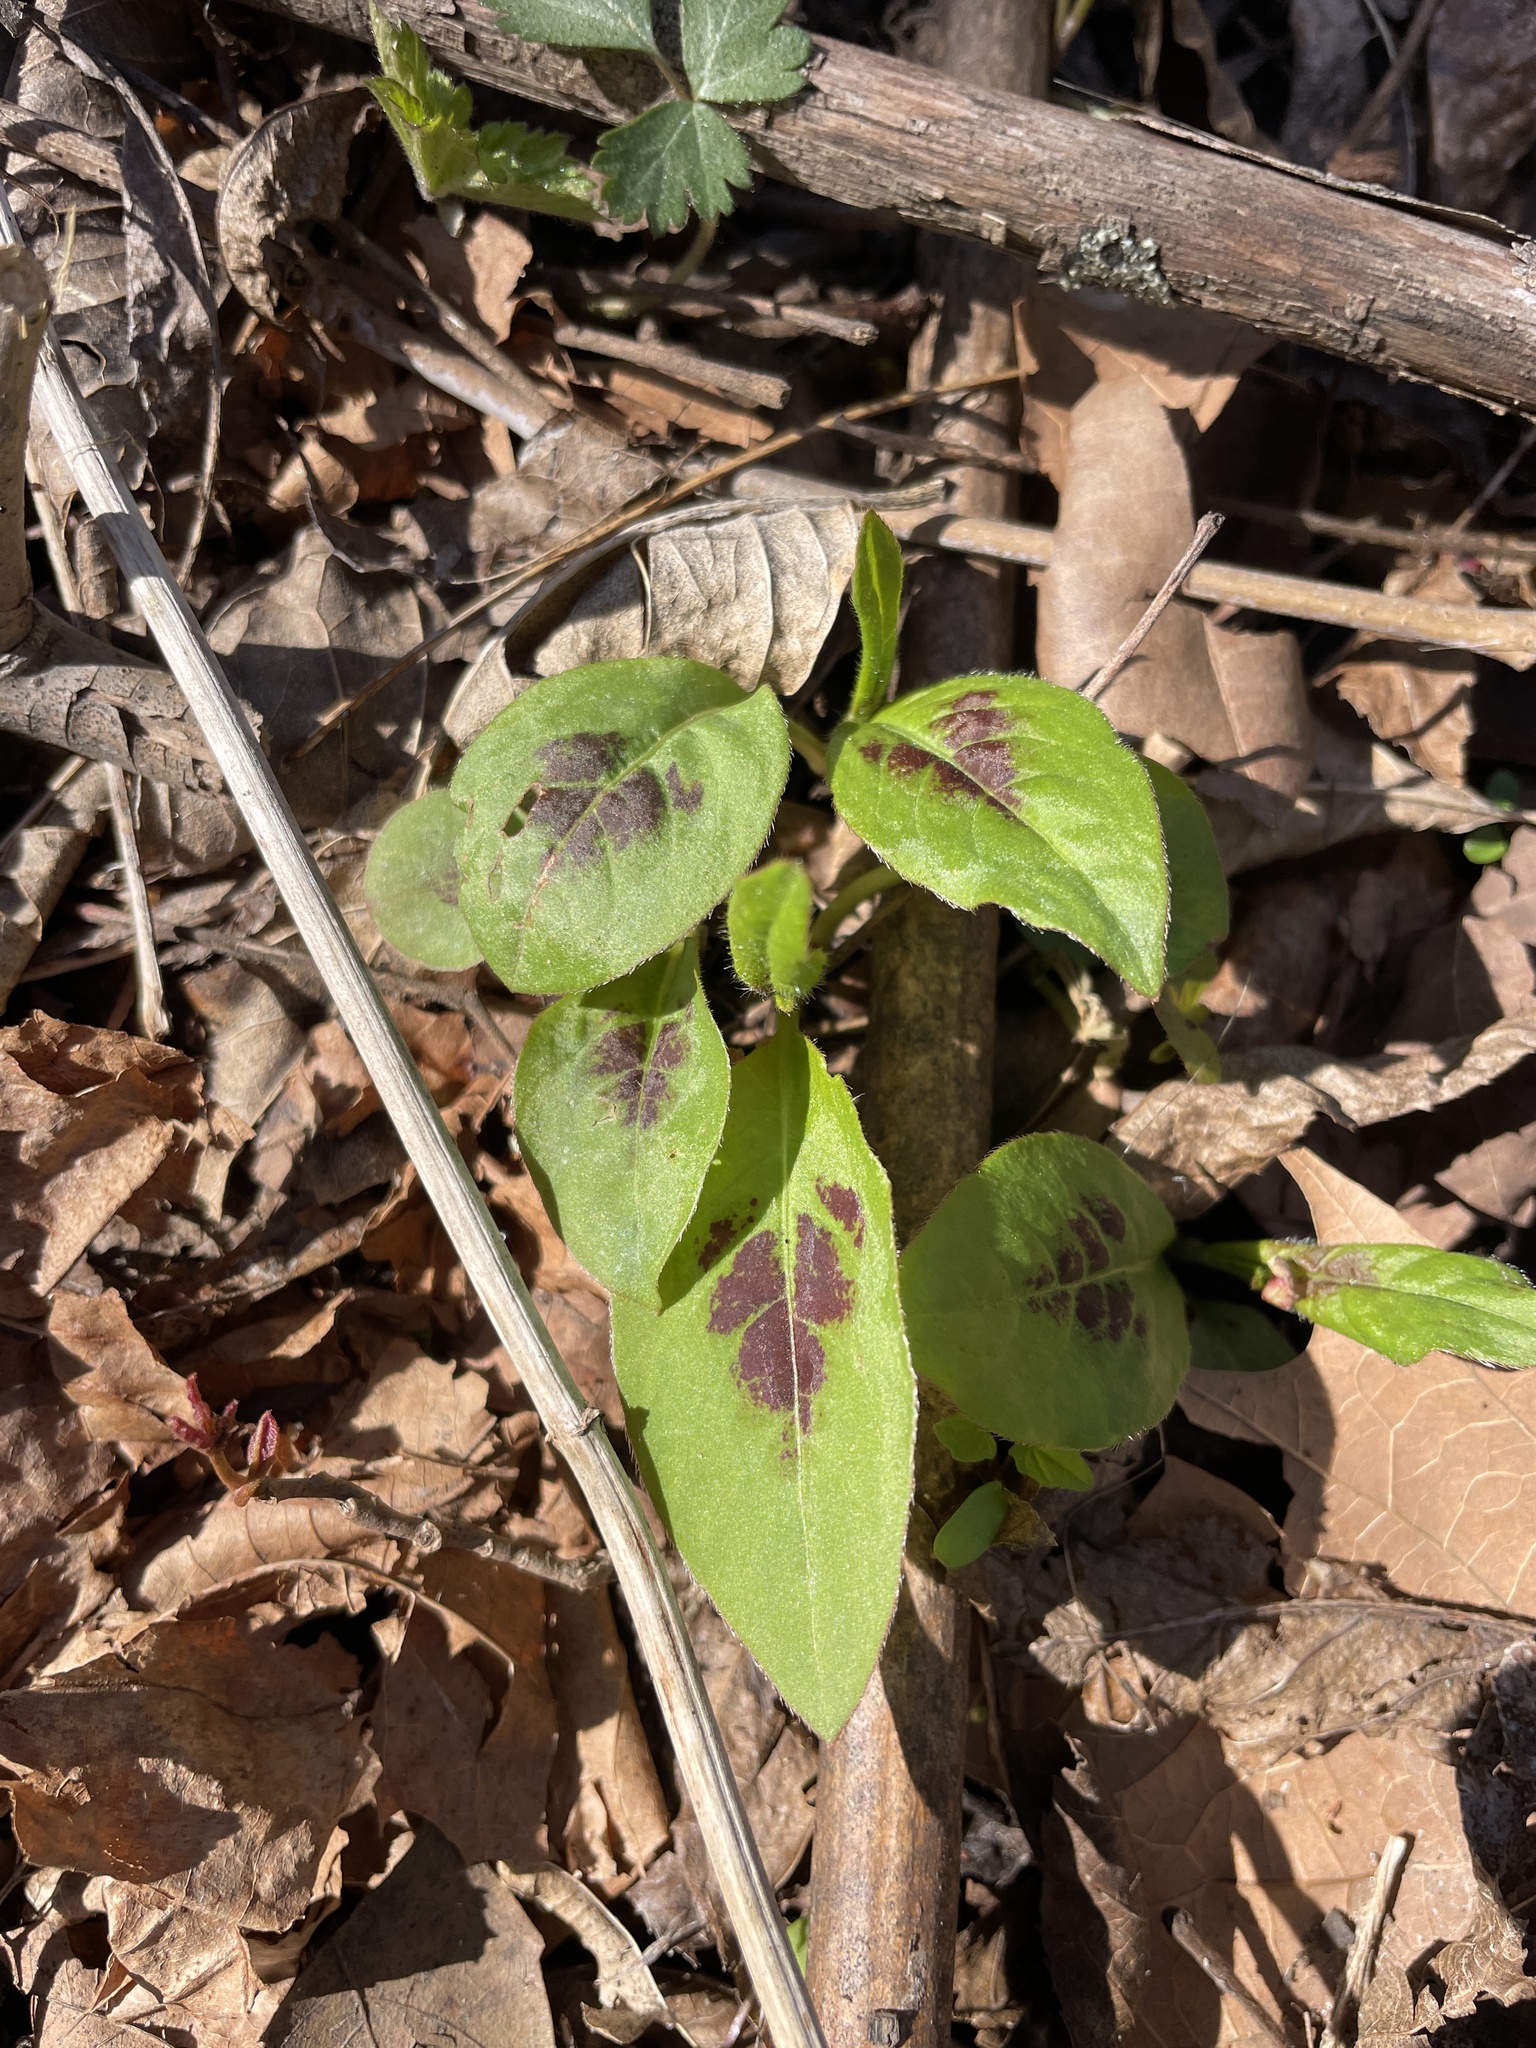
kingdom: Plantae
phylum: Tracheophyta
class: Magnoliopsida
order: Caryophyllales
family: Polygonaceae
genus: Persicaria
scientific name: Persicaria virginiana
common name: Jumpseed
